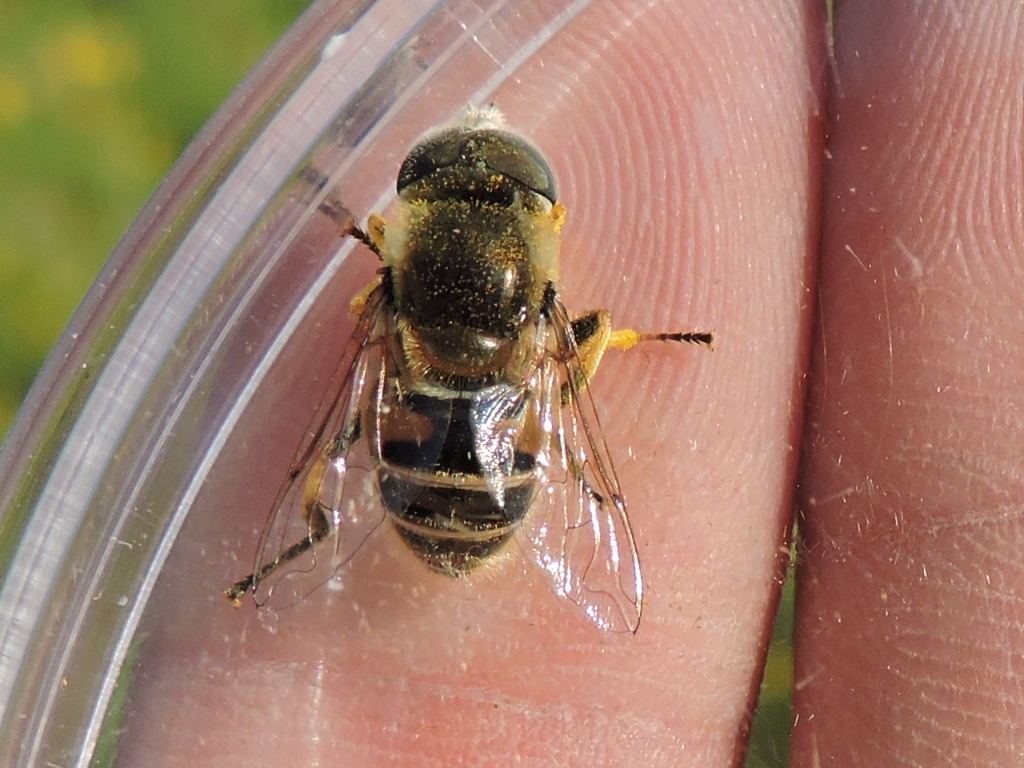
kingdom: Animalia
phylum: Arthropoda
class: Insecta
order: Diptera
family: Syrphidae
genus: Eristalis
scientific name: Eristalis stipator
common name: Yellow-shouldered drone fly
